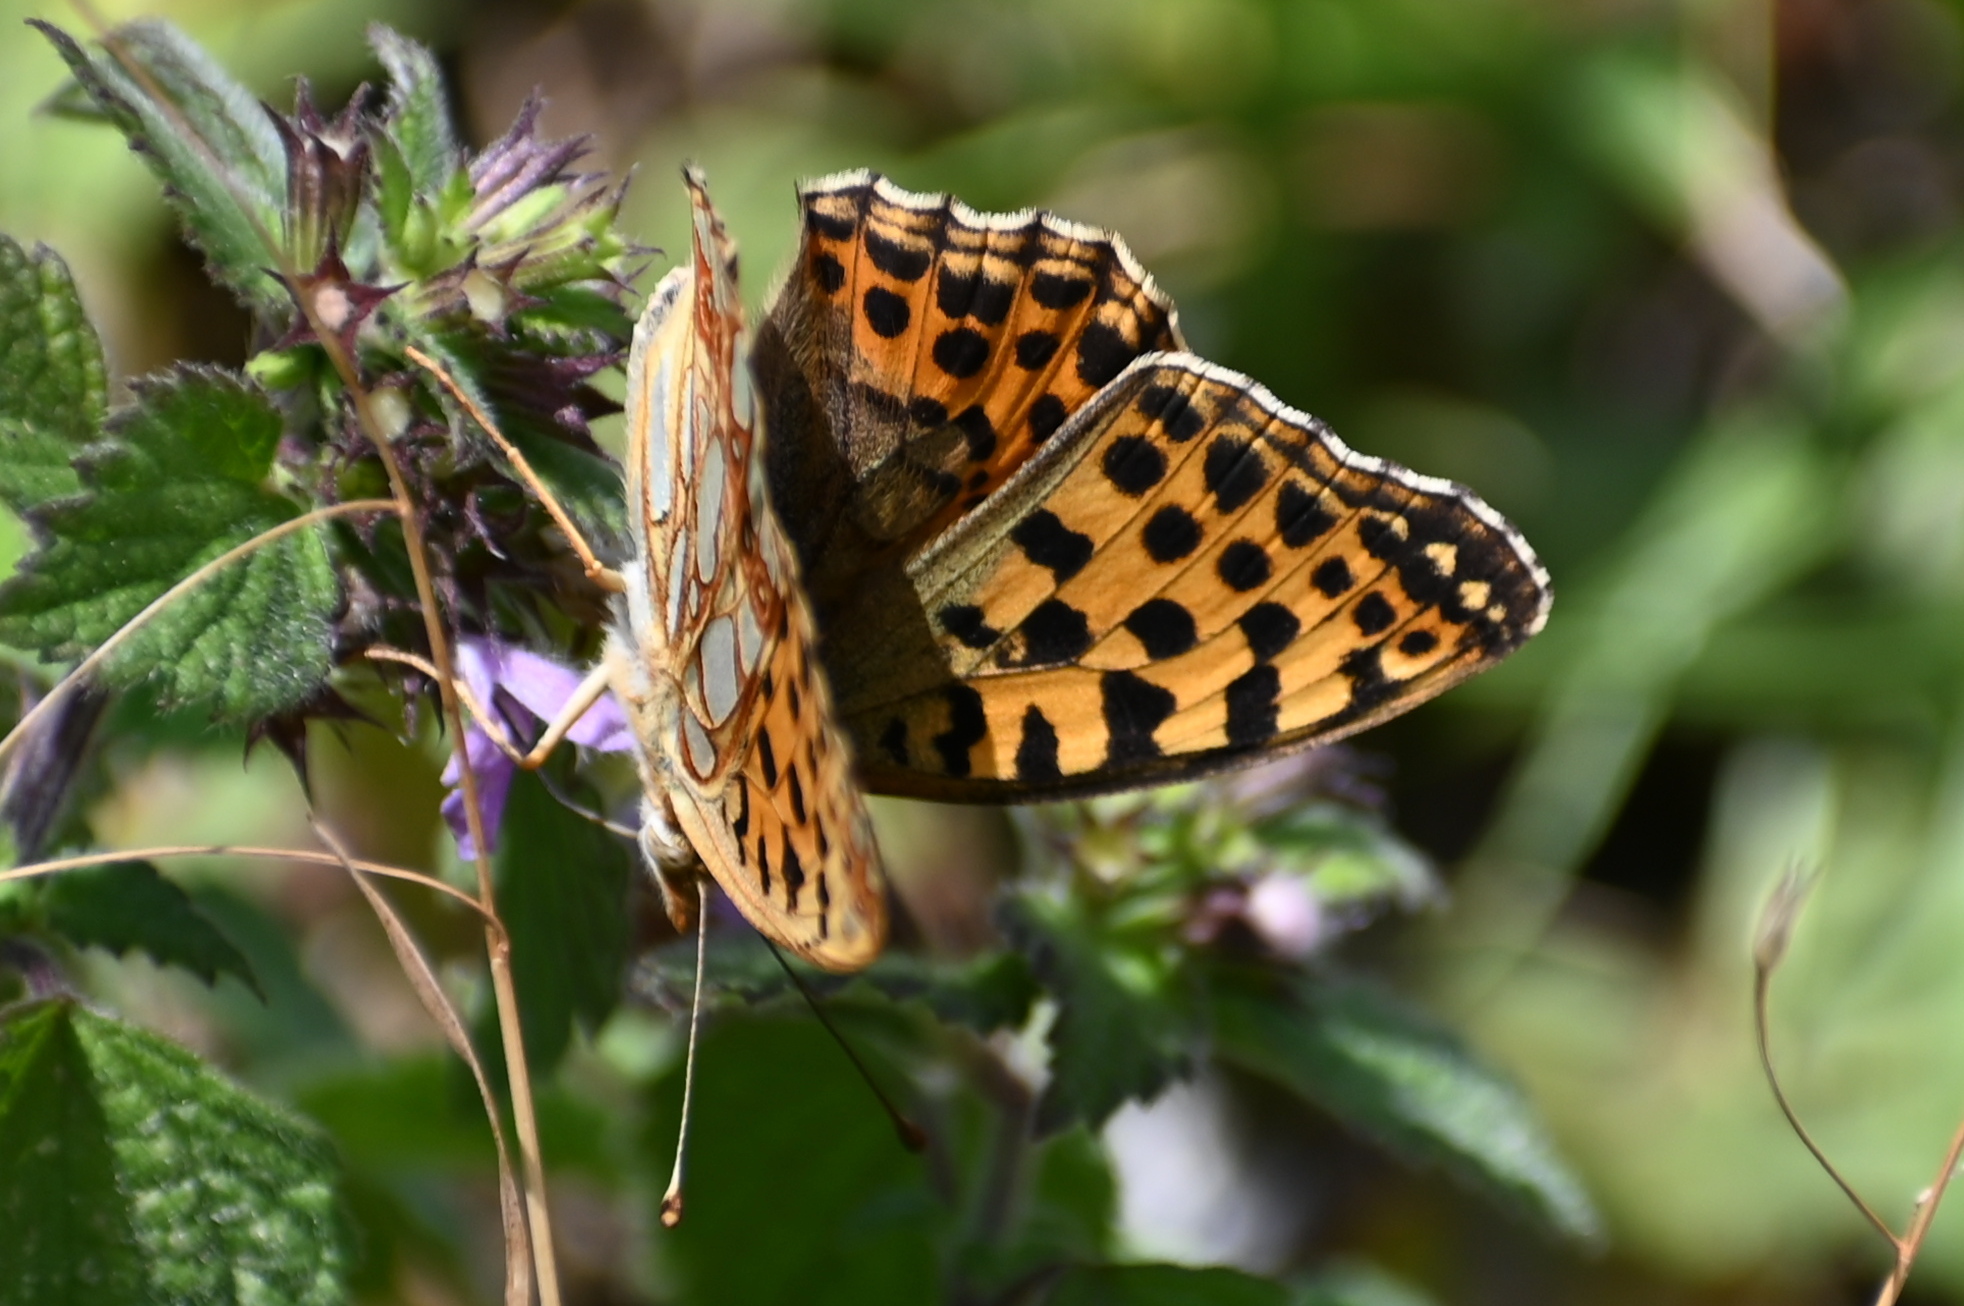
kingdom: Animalia
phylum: Arthropoda
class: Insecta
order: Lepidoptera
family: Nymphalidae
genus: Issoria
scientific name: Issoria lathonia
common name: Queen of spain fritillary
